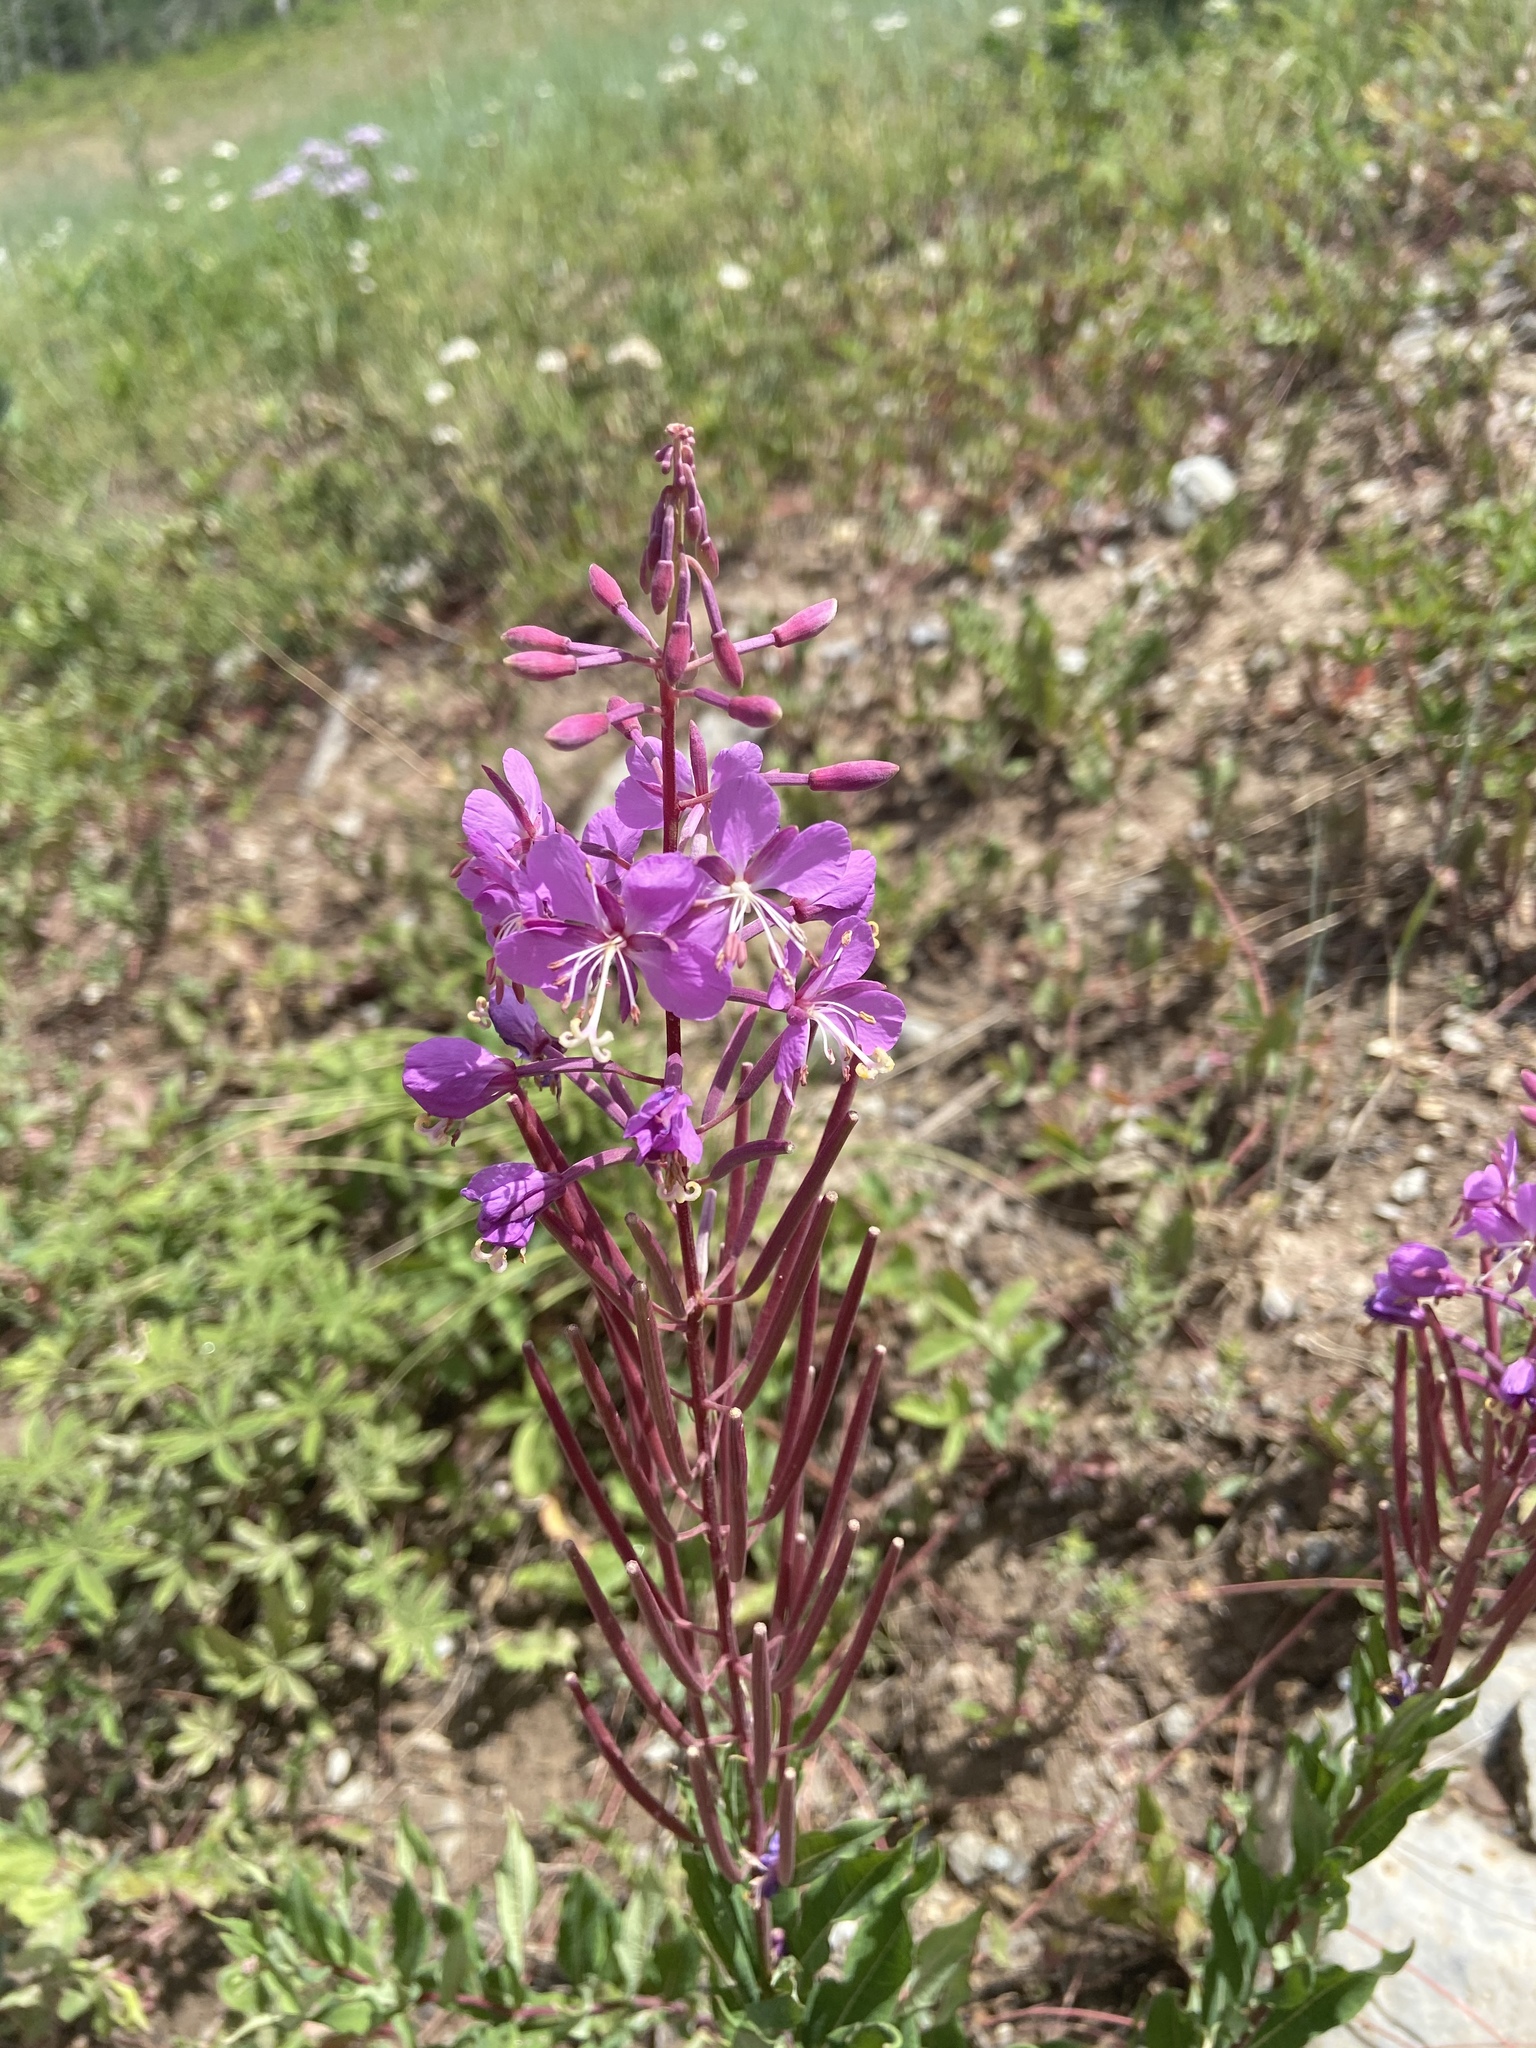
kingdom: Plantae
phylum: Tracheophyta
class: Magnoliopsida
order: Myrtales
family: Onagraceae
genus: Chamaenerion
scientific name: Chamaenerion angustifolium
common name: Fireweed
